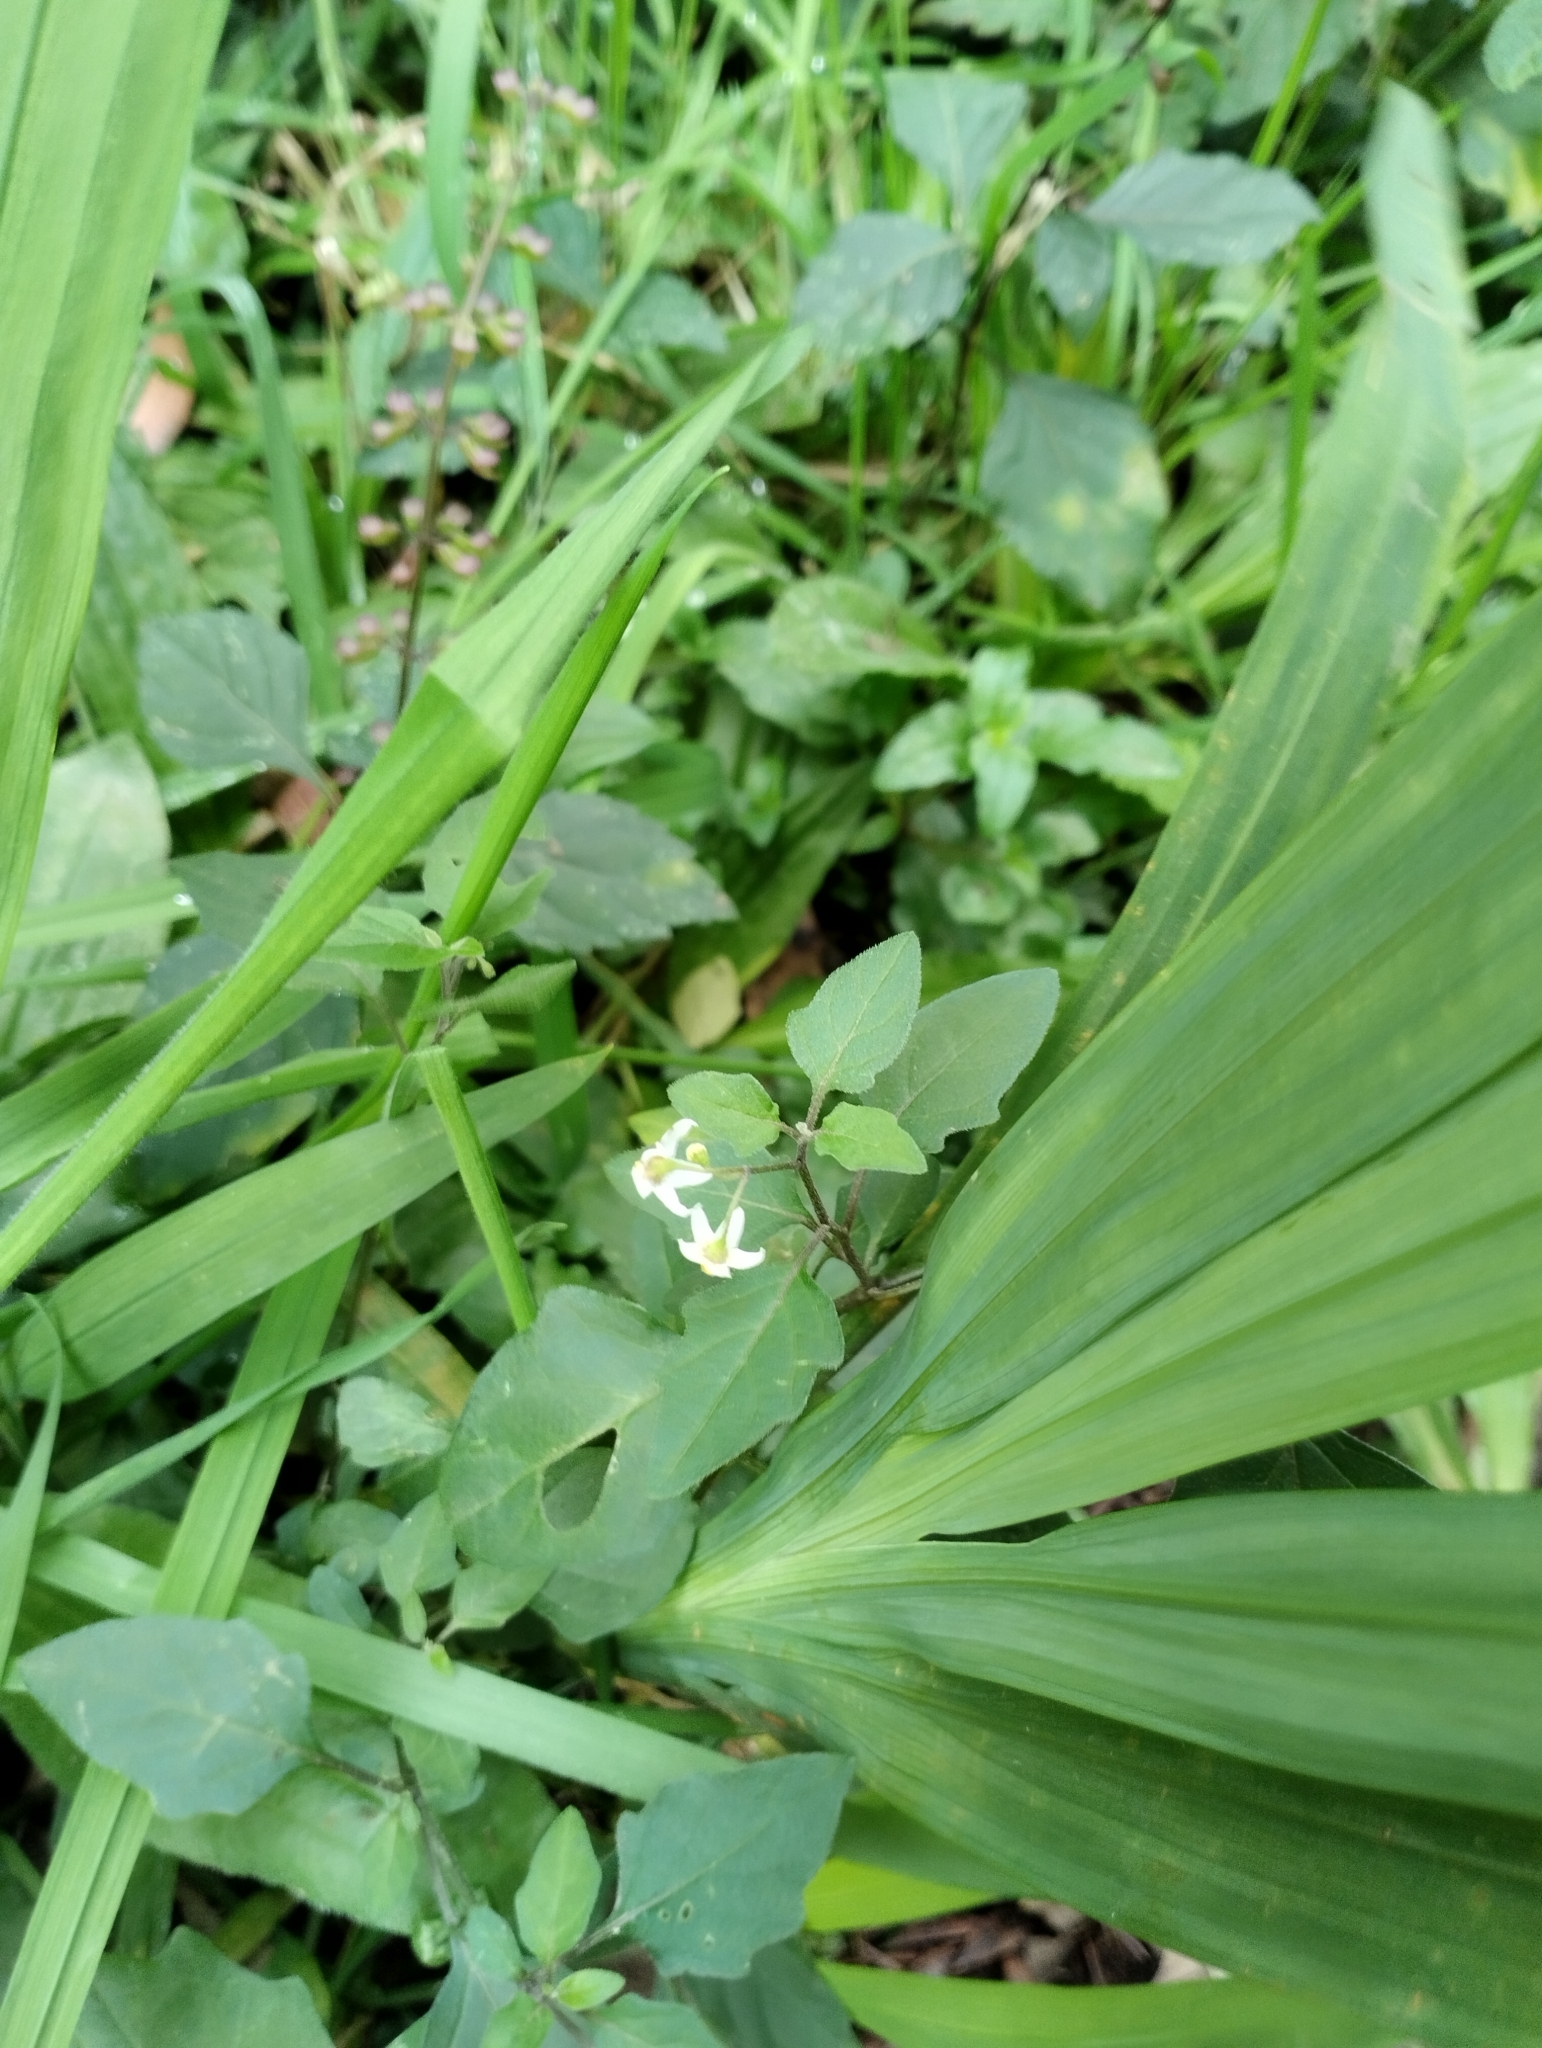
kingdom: Plantae
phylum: Tracheophyta
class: Magnoliopsida
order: Solanales
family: Solanaceae
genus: Solanum
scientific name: Solanum americanum
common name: American black nightshade
